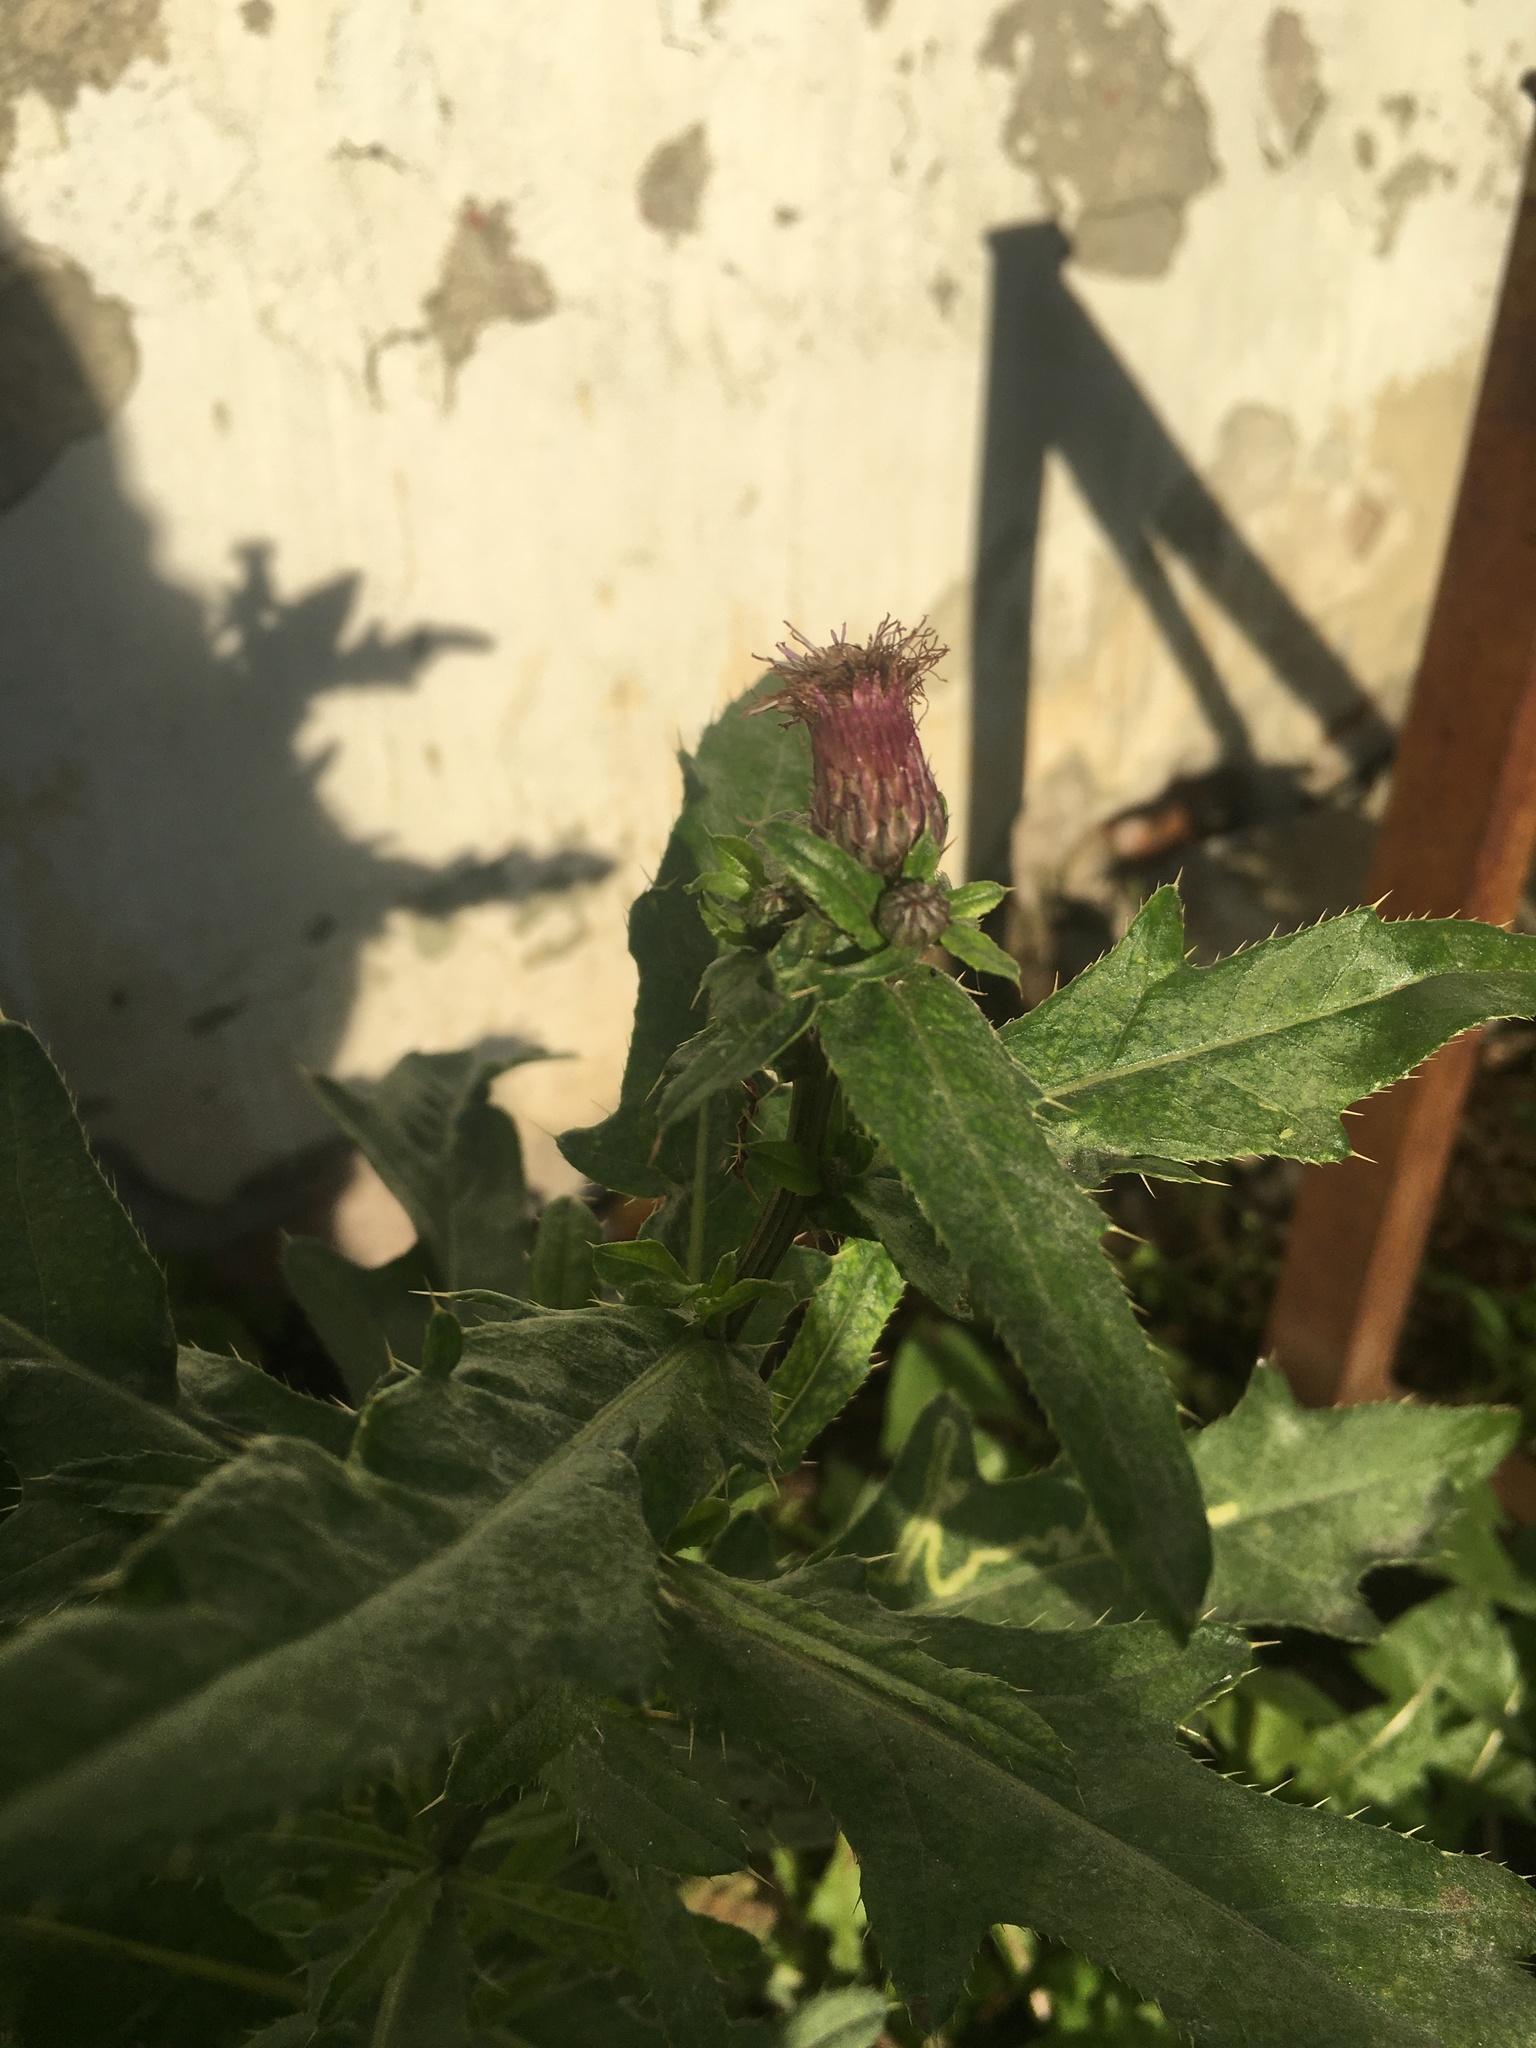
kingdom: Plantae
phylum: Tracheophyta
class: Magnoliopsida
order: Asterales
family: Asteraceae
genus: Cirsium
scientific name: Cirsium arvense
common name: Creeping thistle
